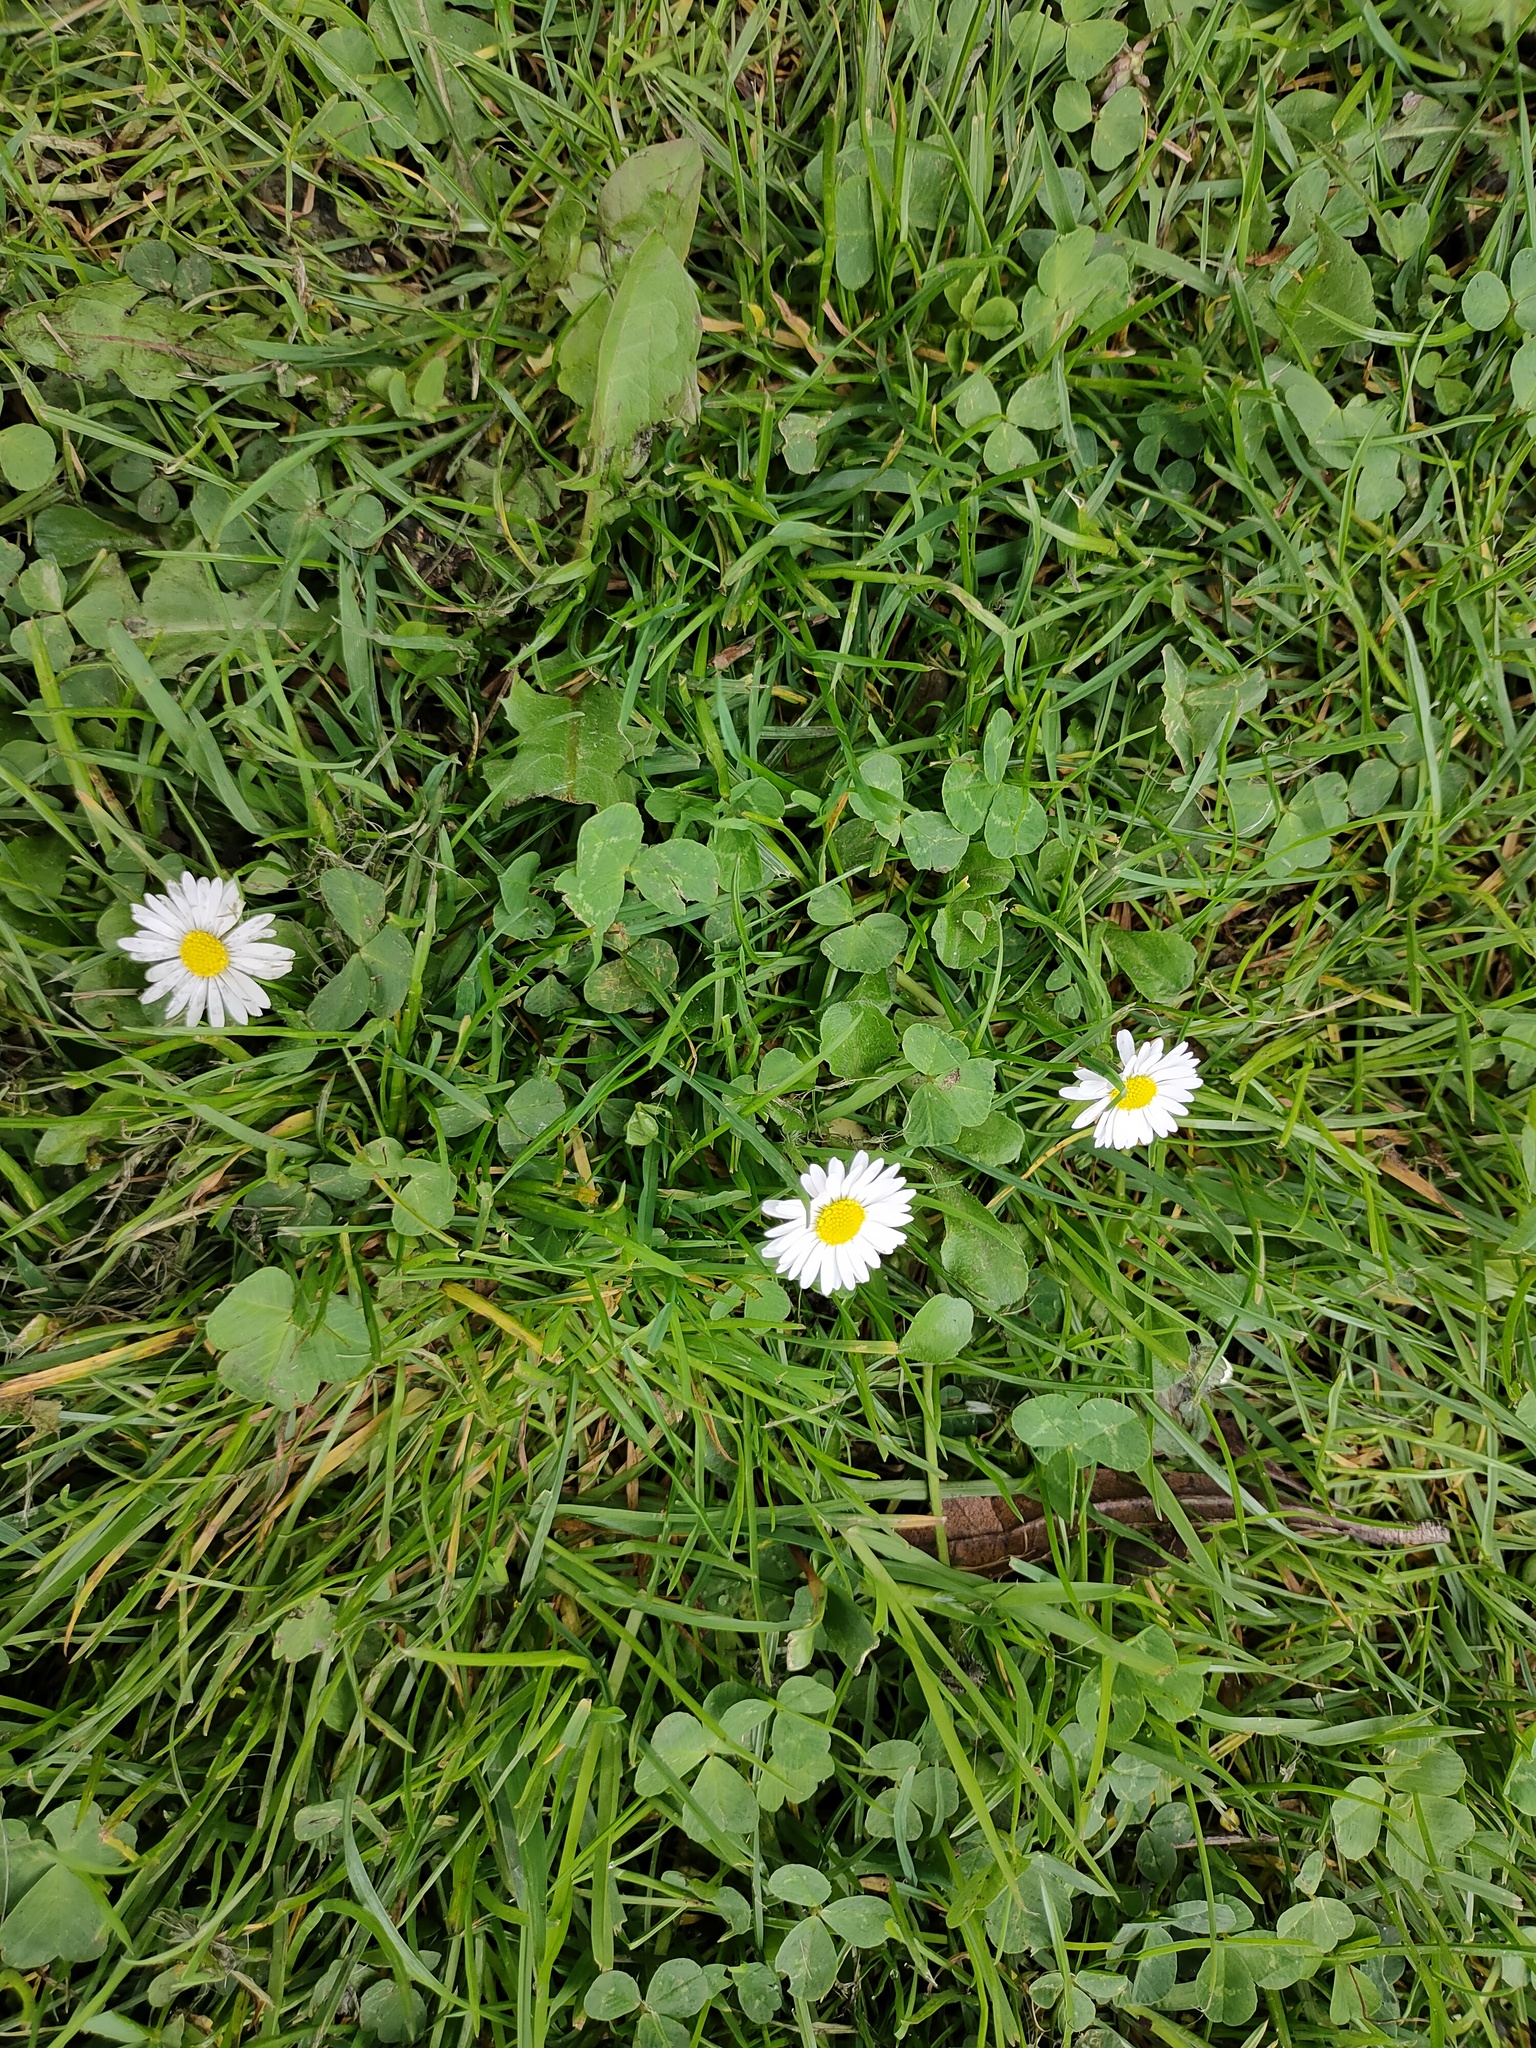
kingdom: Plantae
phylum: Tracheophyta
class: Magnoliopsida
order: Asterales
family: Asteraceae
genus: Bellis
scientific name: Bellis perennis
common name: Lawndaisy
